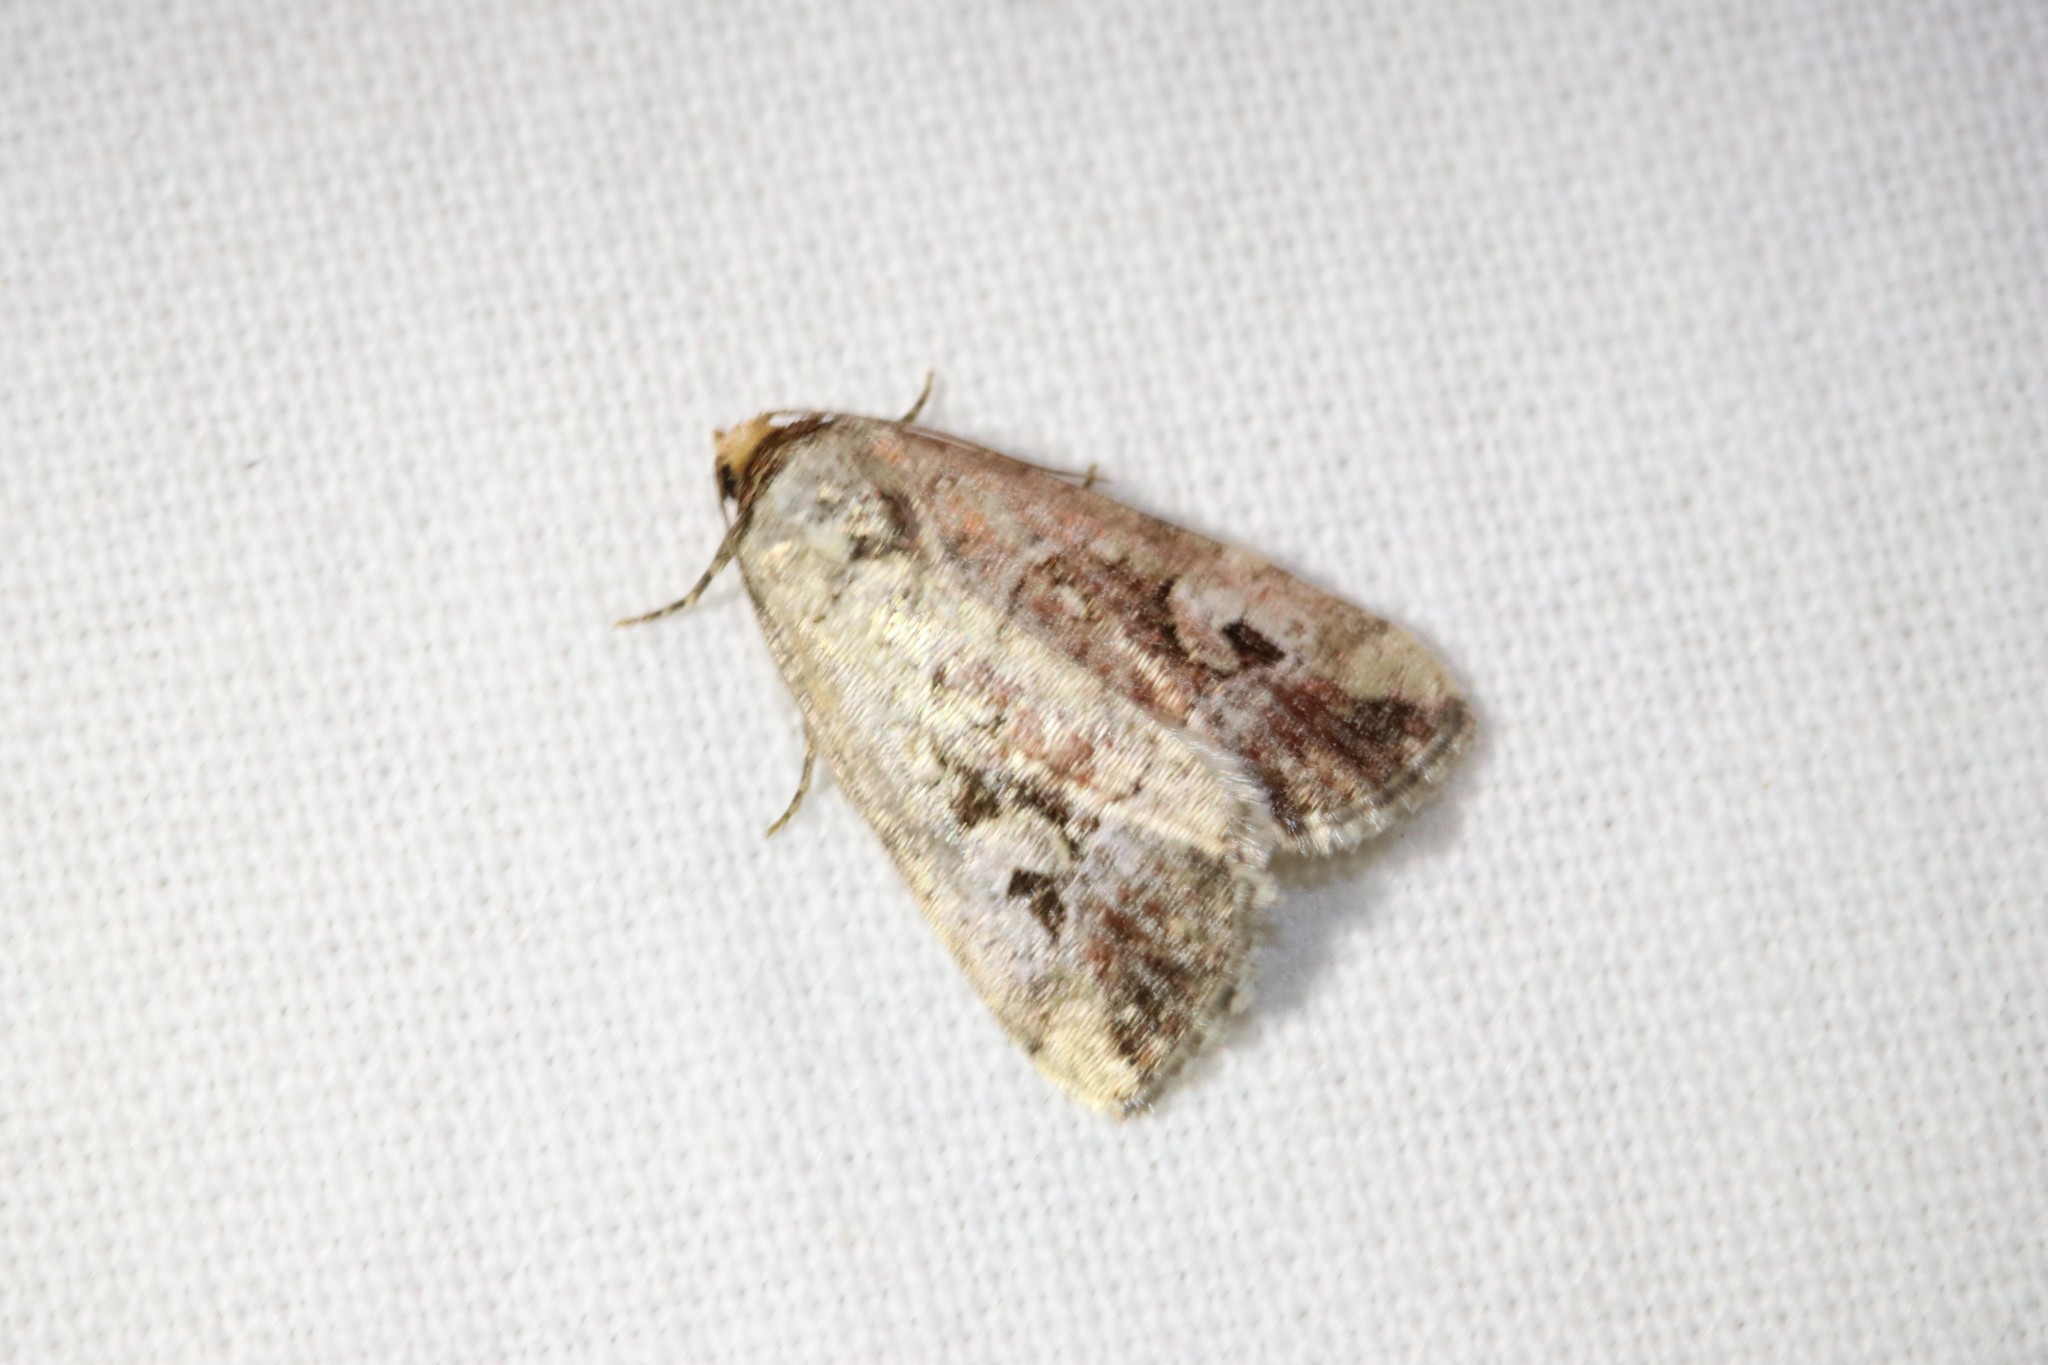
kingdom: Animalia
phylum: Arthropoda
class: Insecta
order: Lepidoptera
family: Noctuidae
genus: Elaphria
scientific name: Elaphria alapallida
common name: Pale-winged midget
